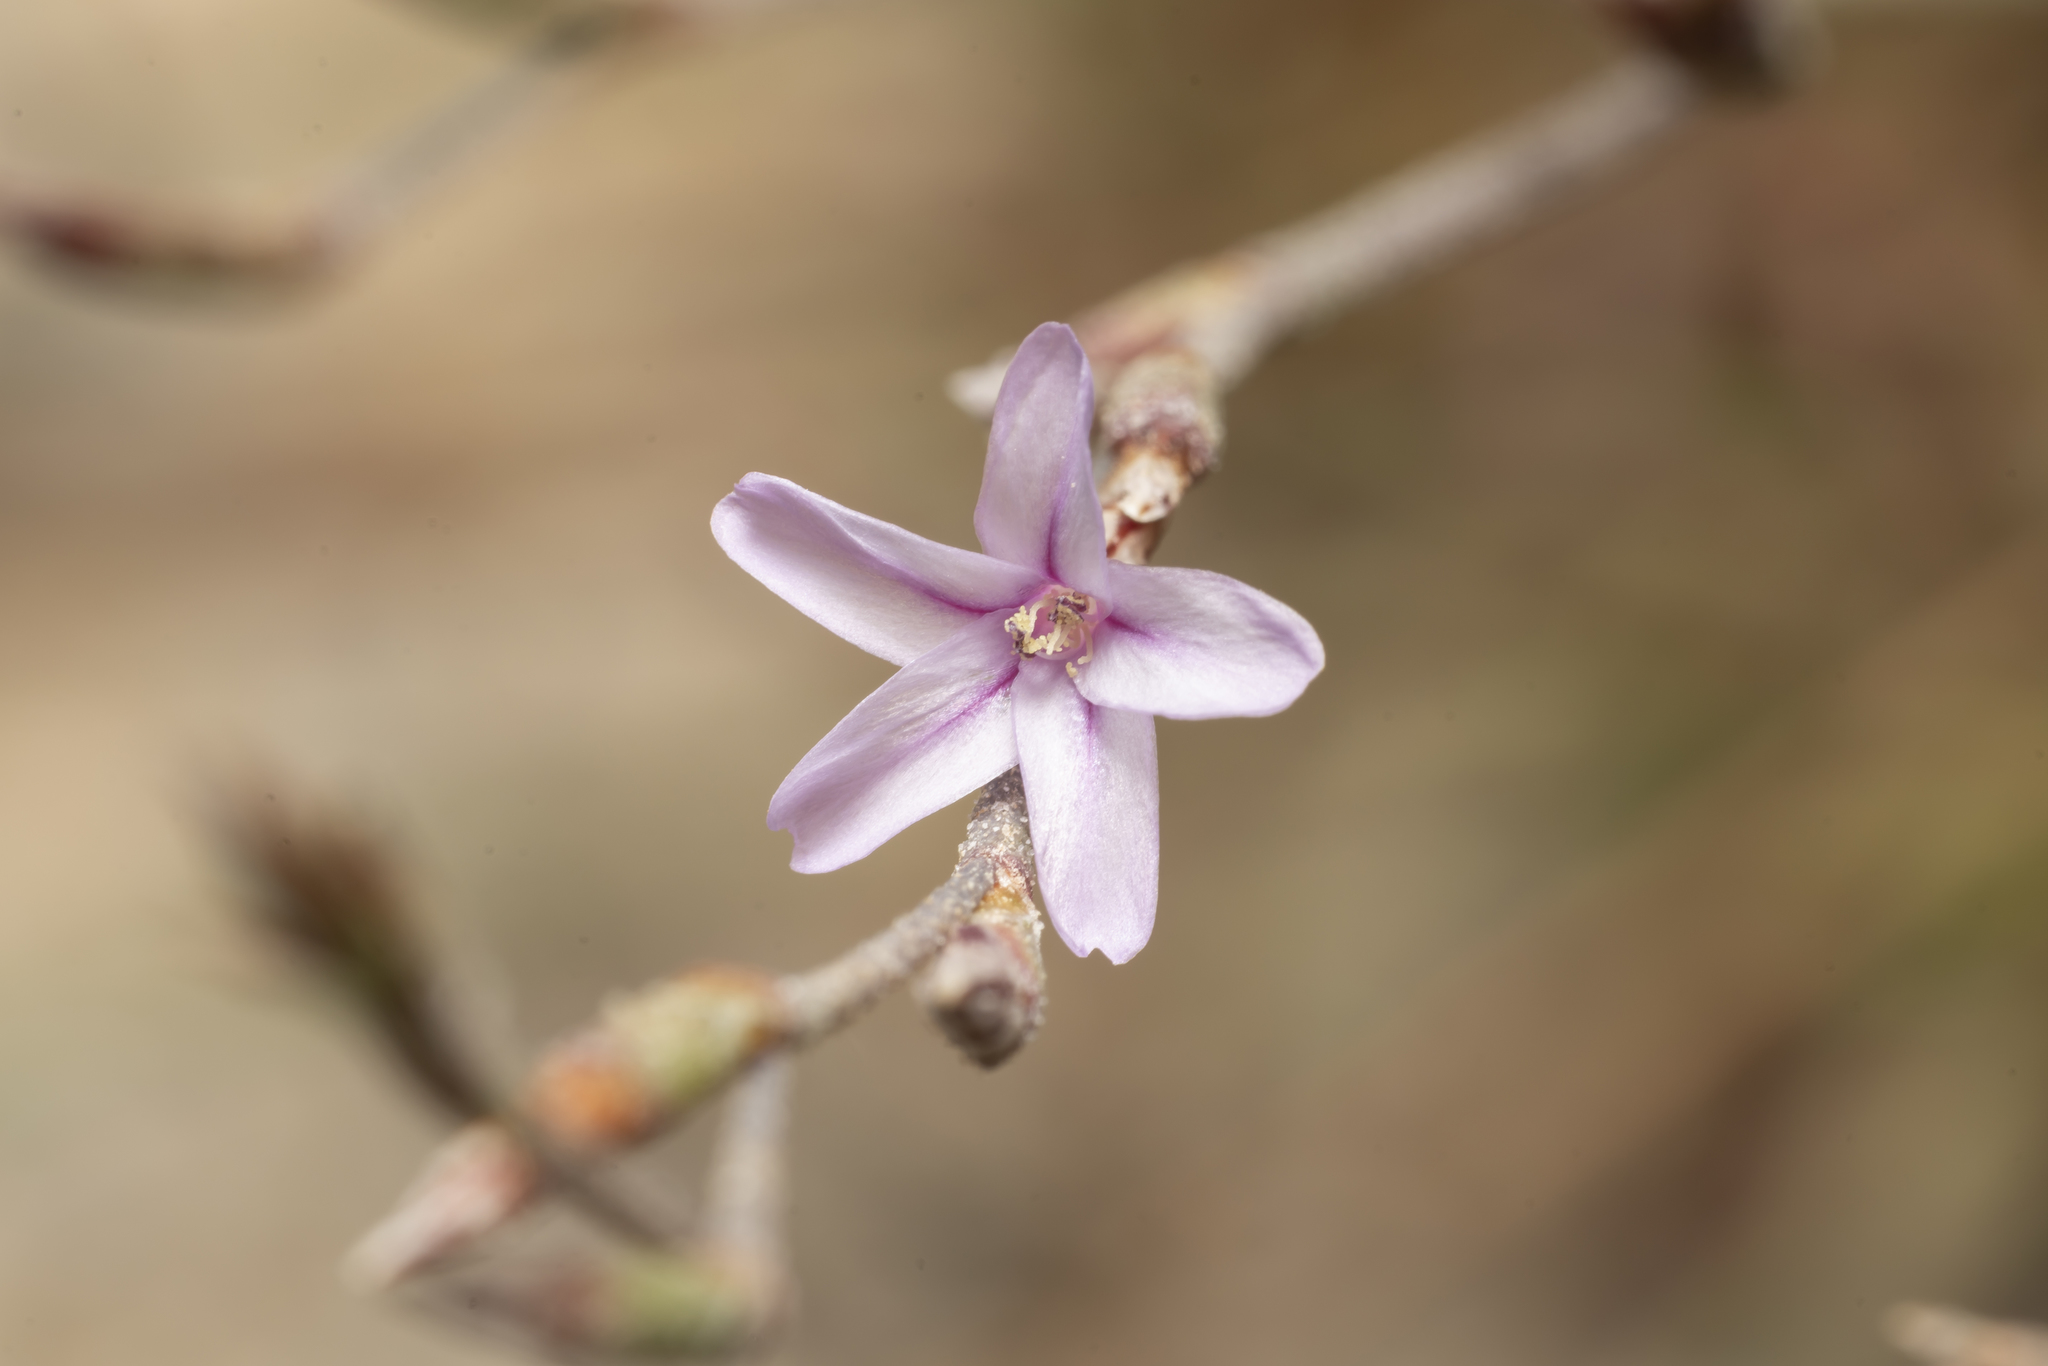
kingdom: Plantae
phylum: Tracheophyta
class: Magnoliopsida
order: Caryophyllales
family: Plumbaginaceae
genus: Limonium
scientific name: Limonium quinnii
